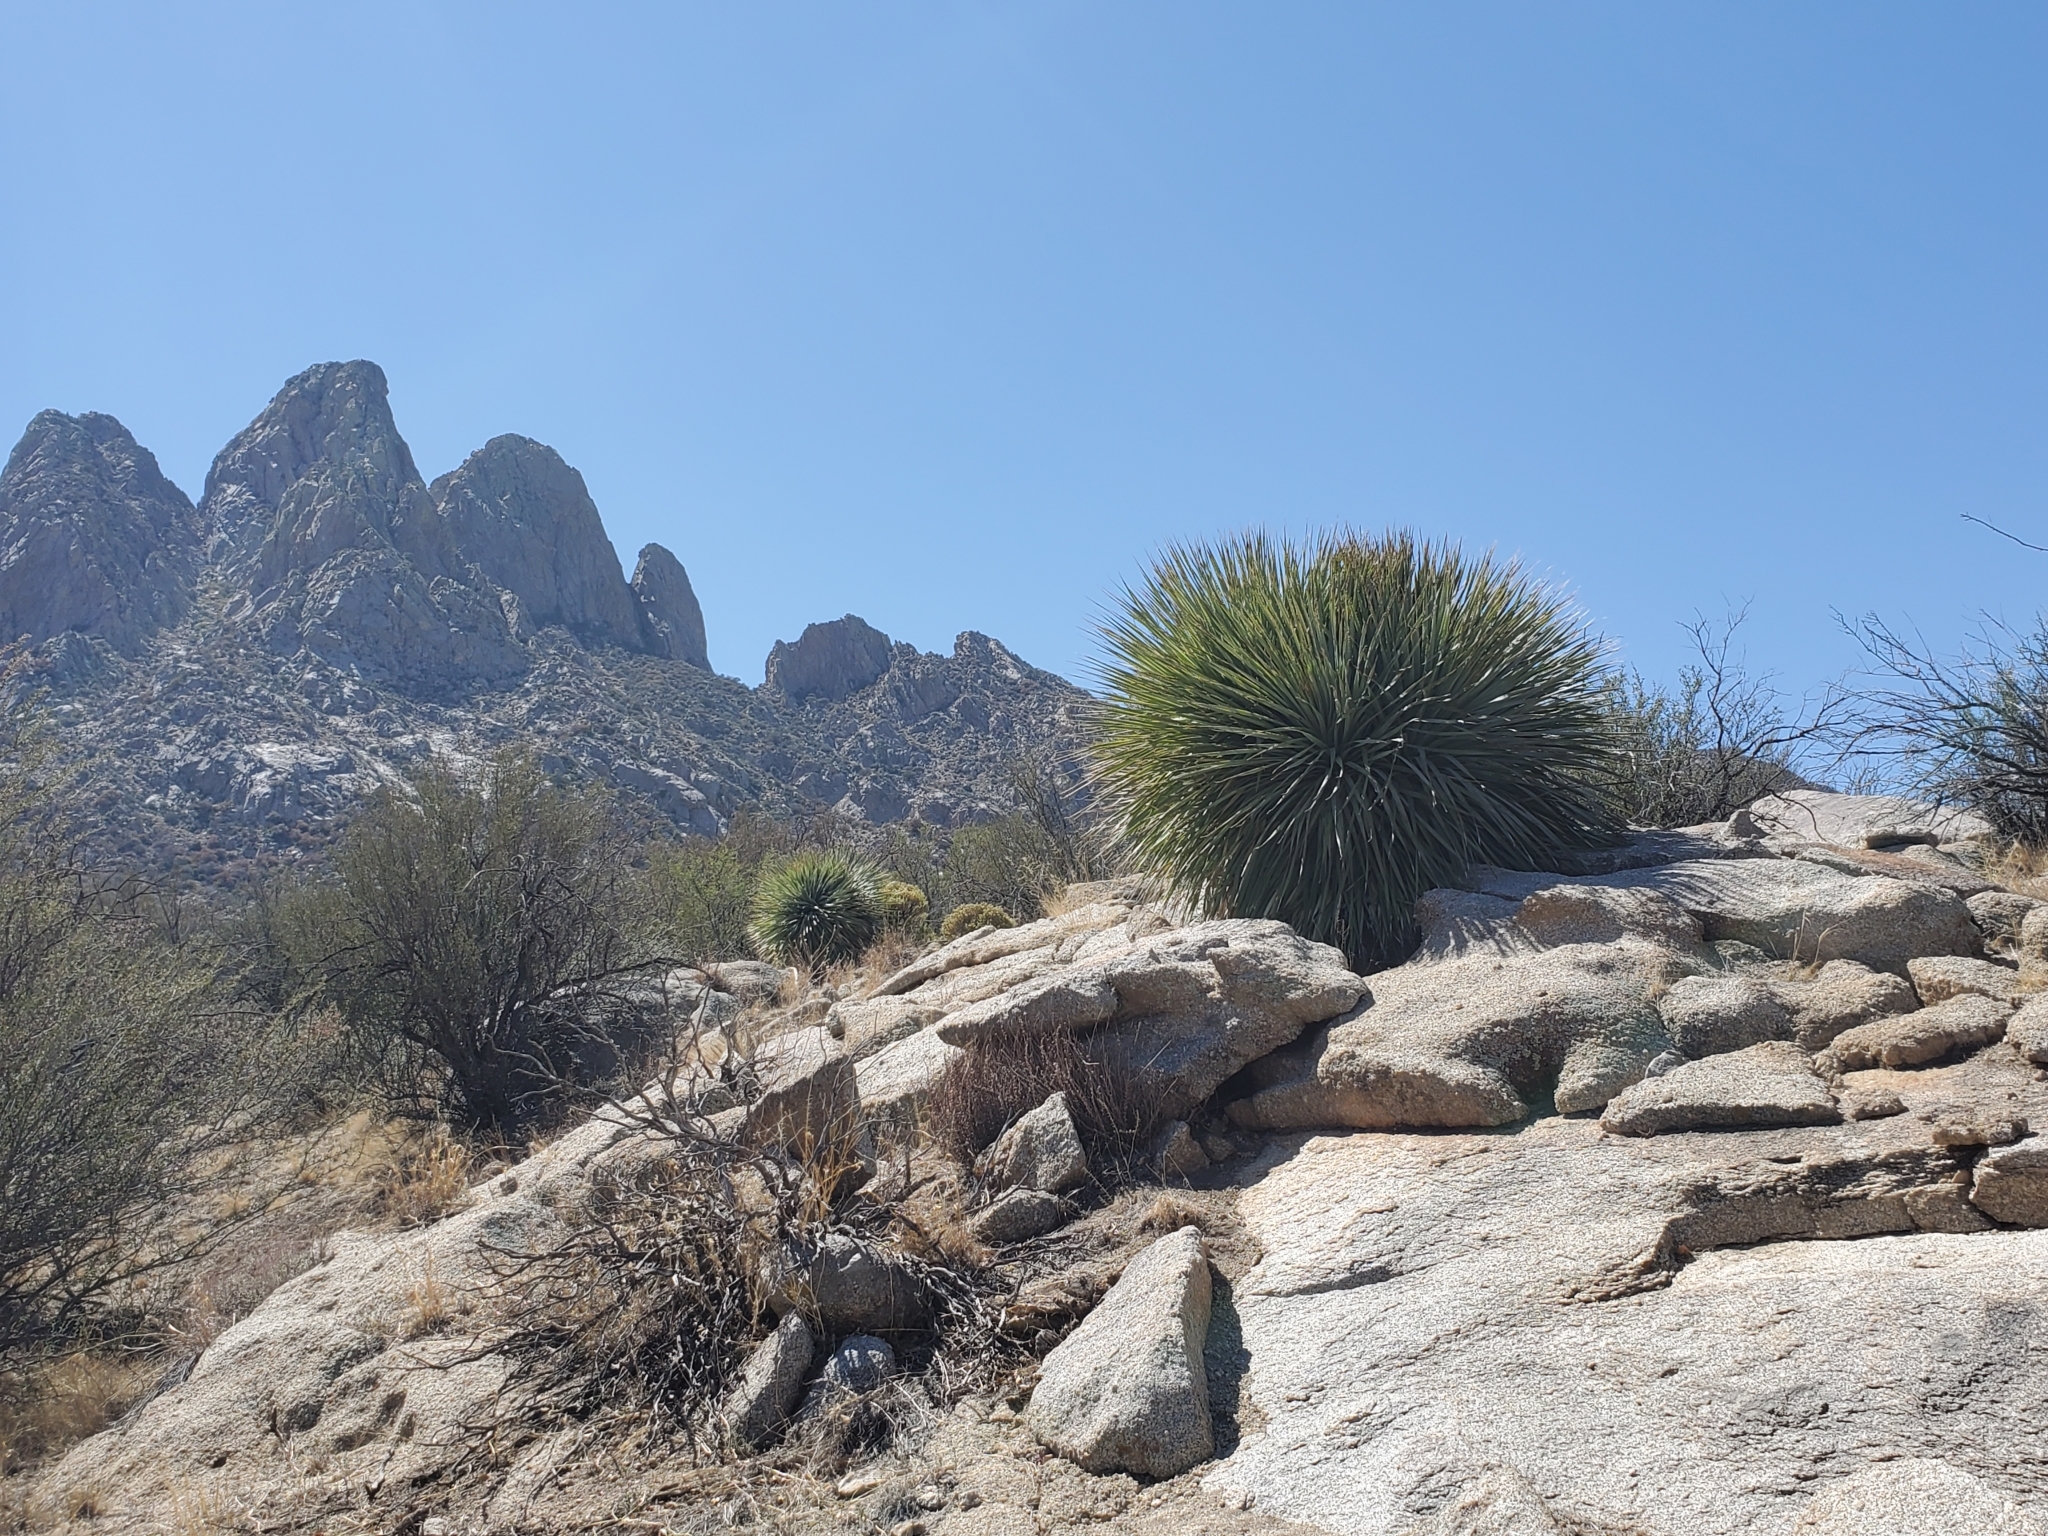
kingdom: Plantae
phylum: Tracheophyta
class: Liliopsida
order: Asparagales
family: Asparagaceae
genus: Dasylirion
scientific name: Dasylirion wheeleri
